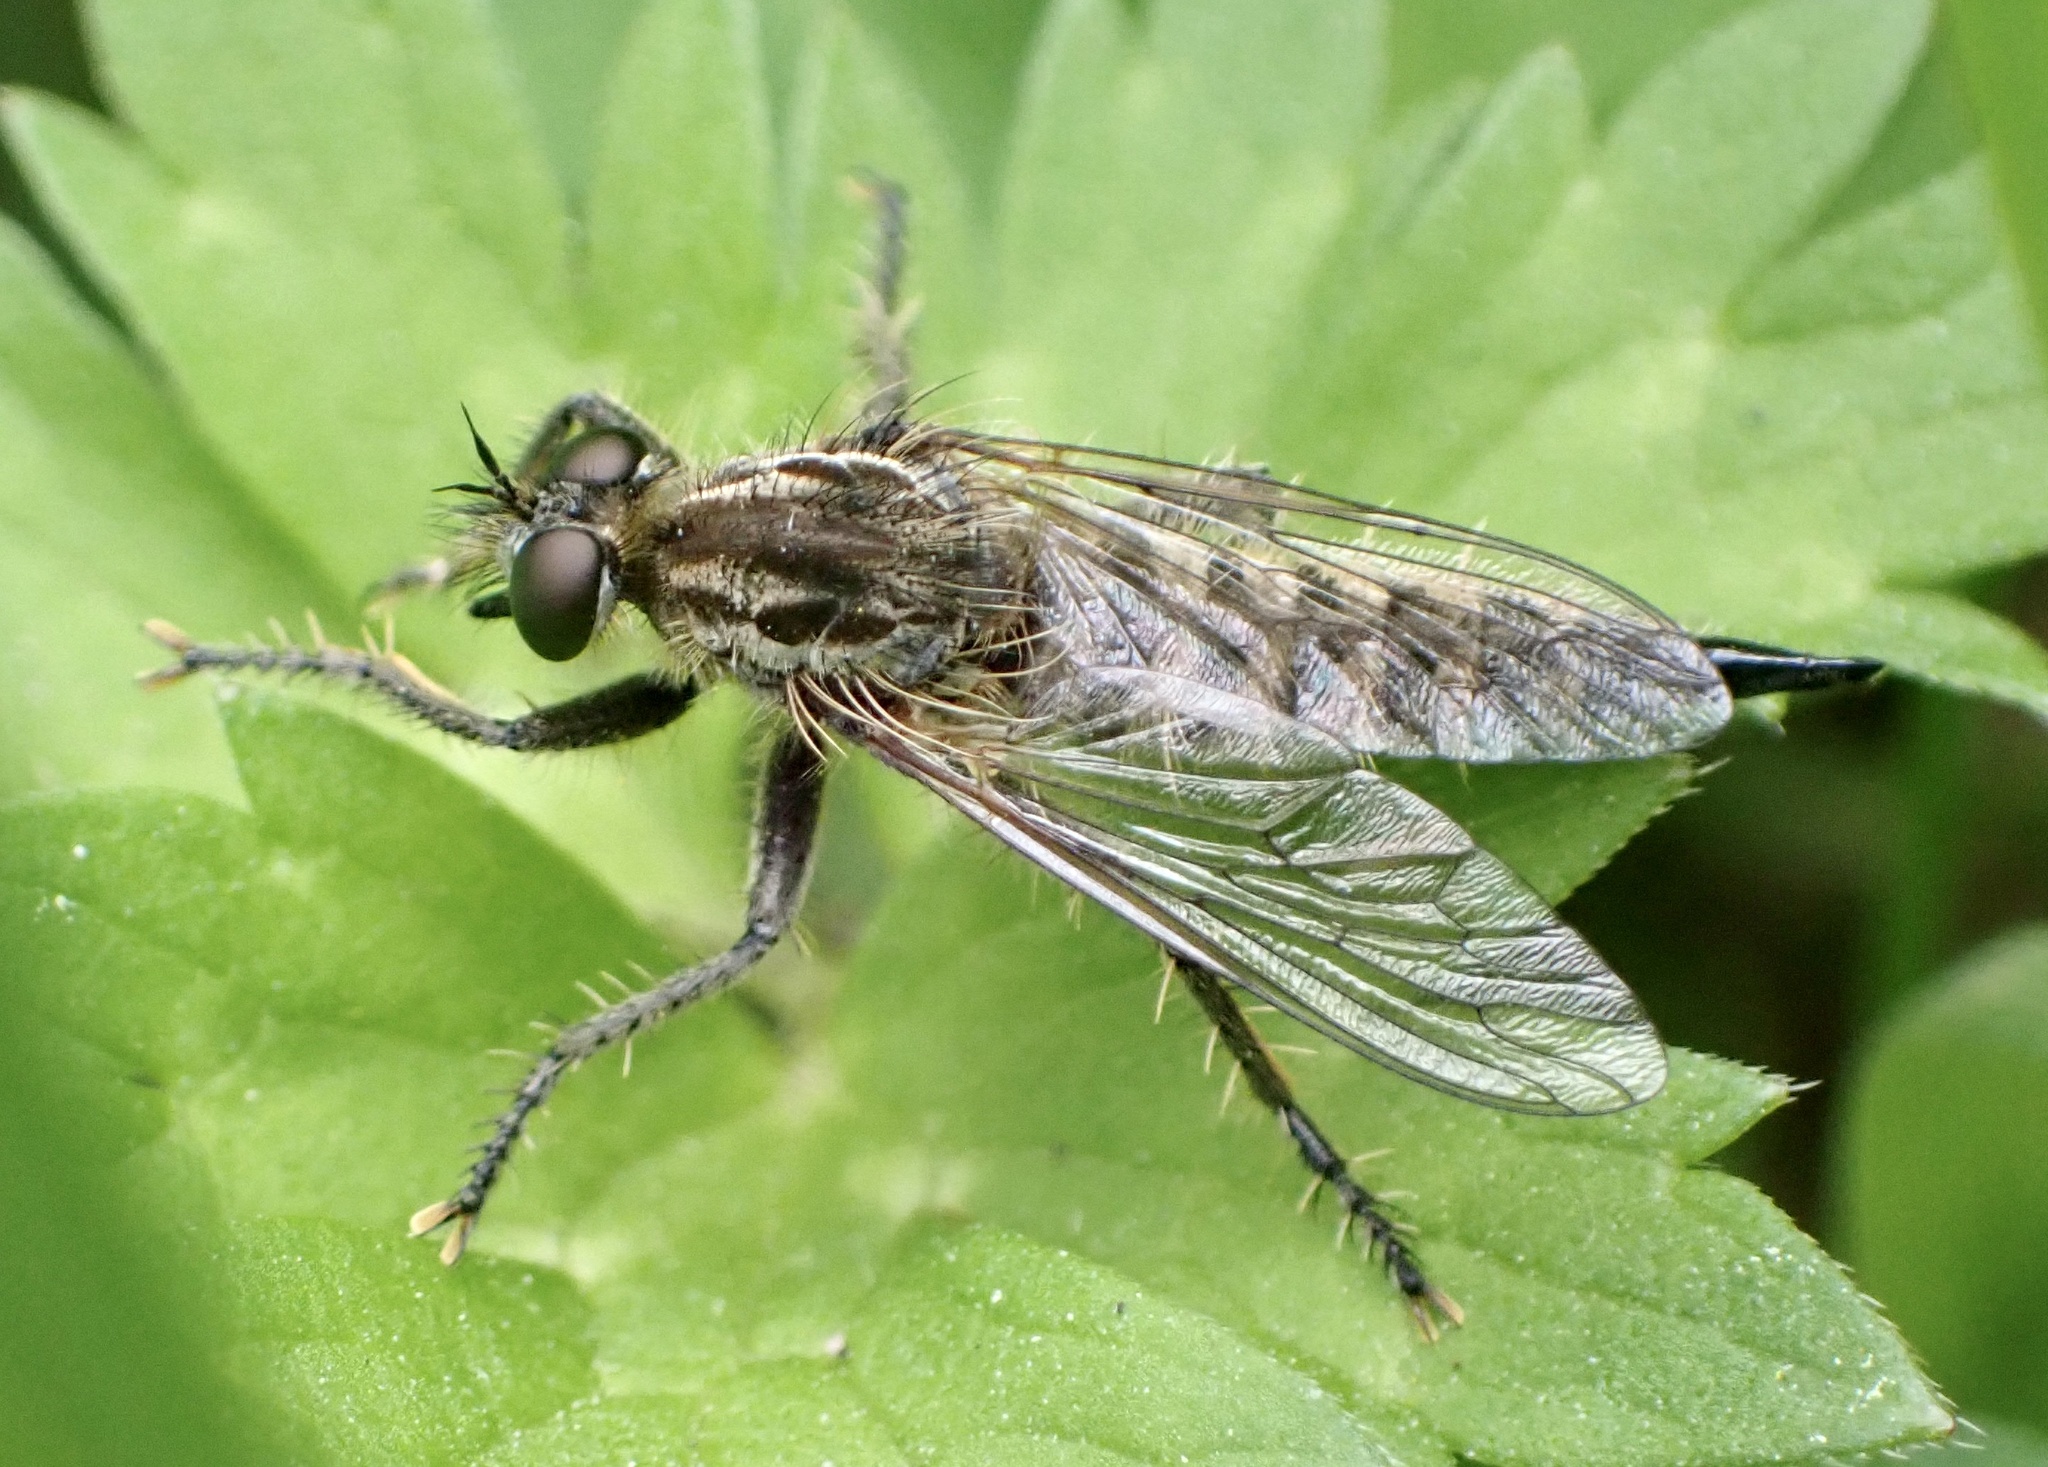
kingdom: Animalia
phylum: Arthropoda
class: Insecta
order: Diptera
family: Asilidae
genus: Dysmachus
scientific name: Dysmachus trigonus
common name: Fan-bristled robberfly
